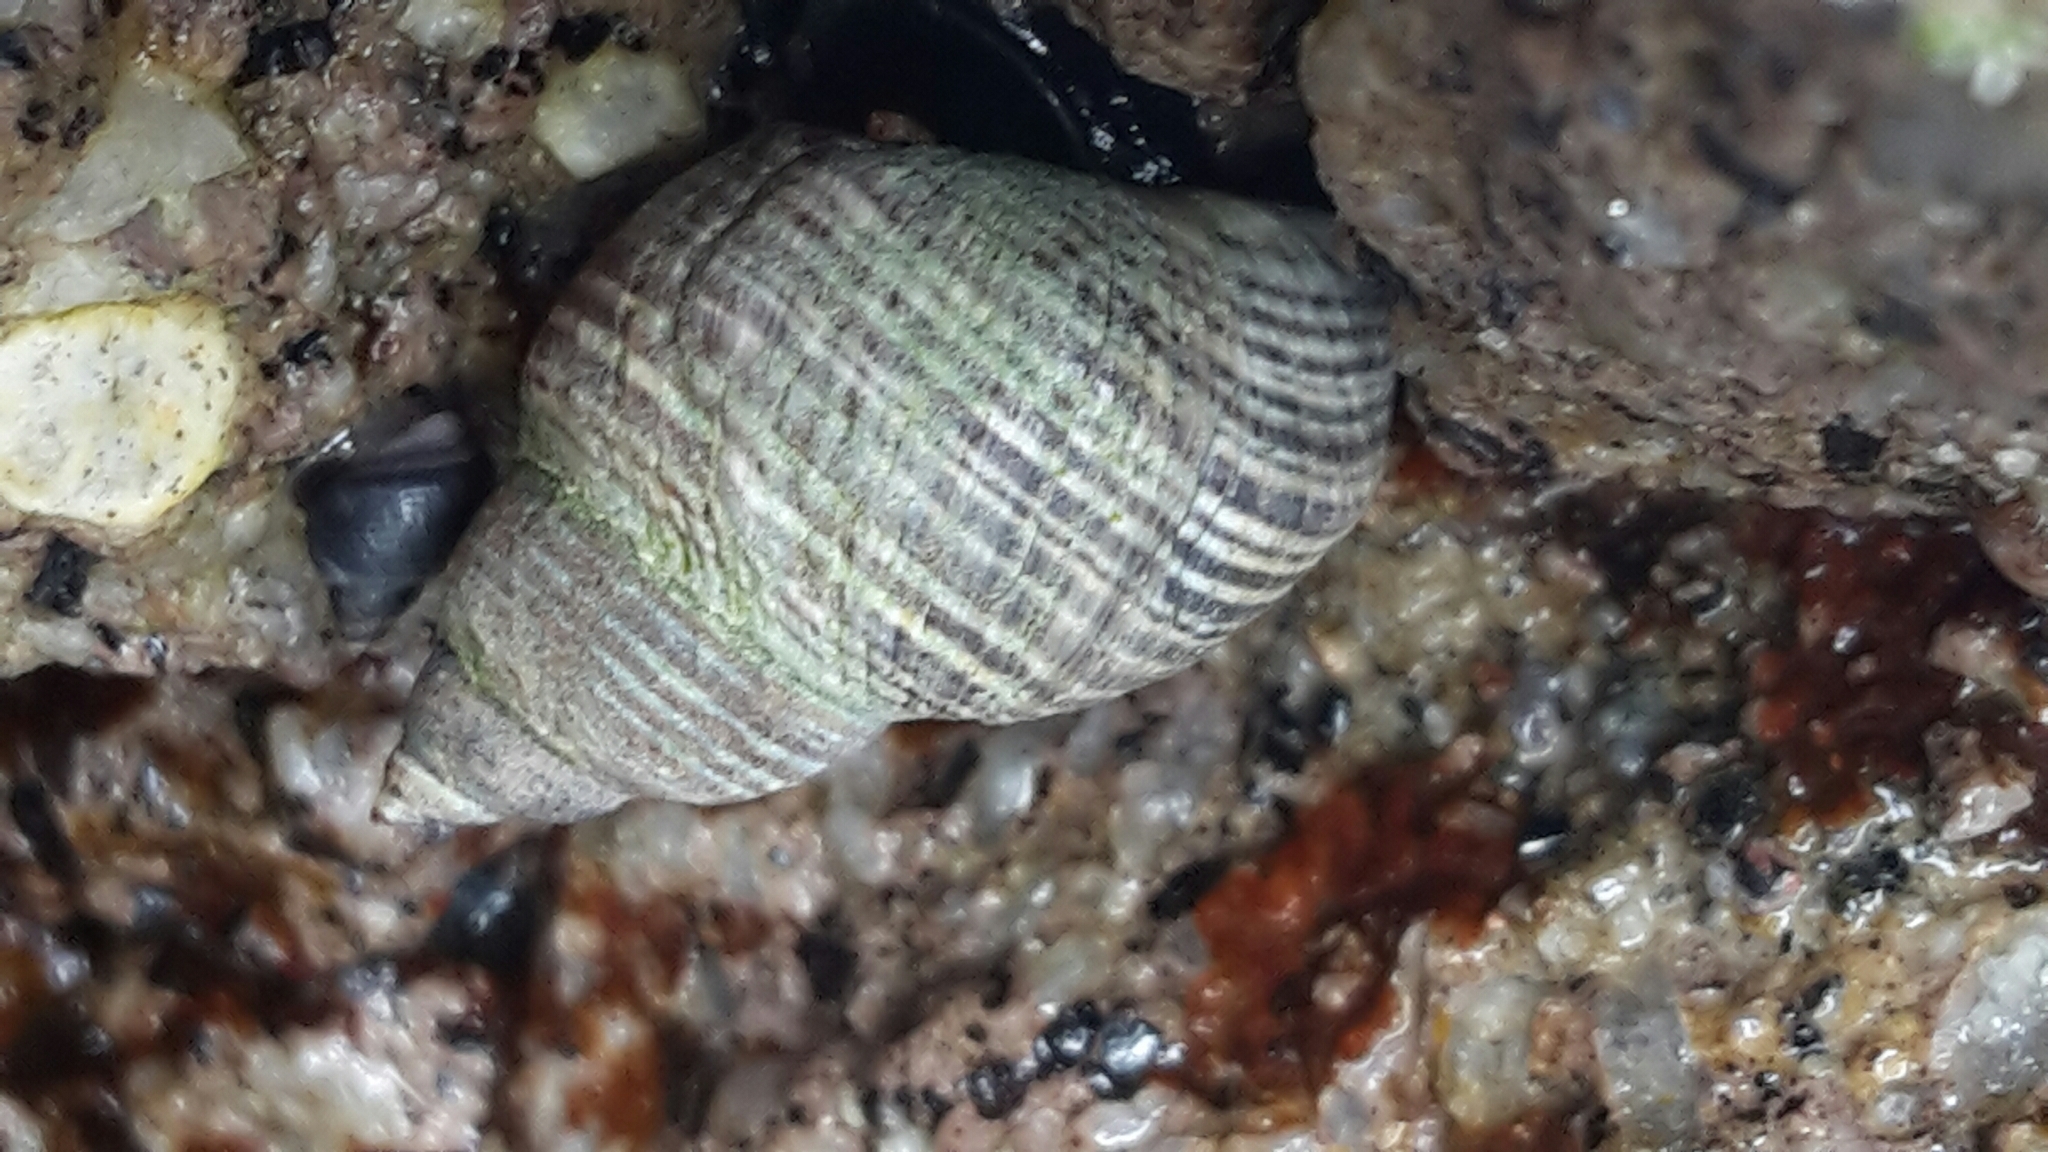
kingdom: Animalia
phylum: Mollusca
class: Gastropoda
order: Littorinimorpha
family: Littorinidae
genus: Austrolittorina
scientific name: Austrolittorina cincta
